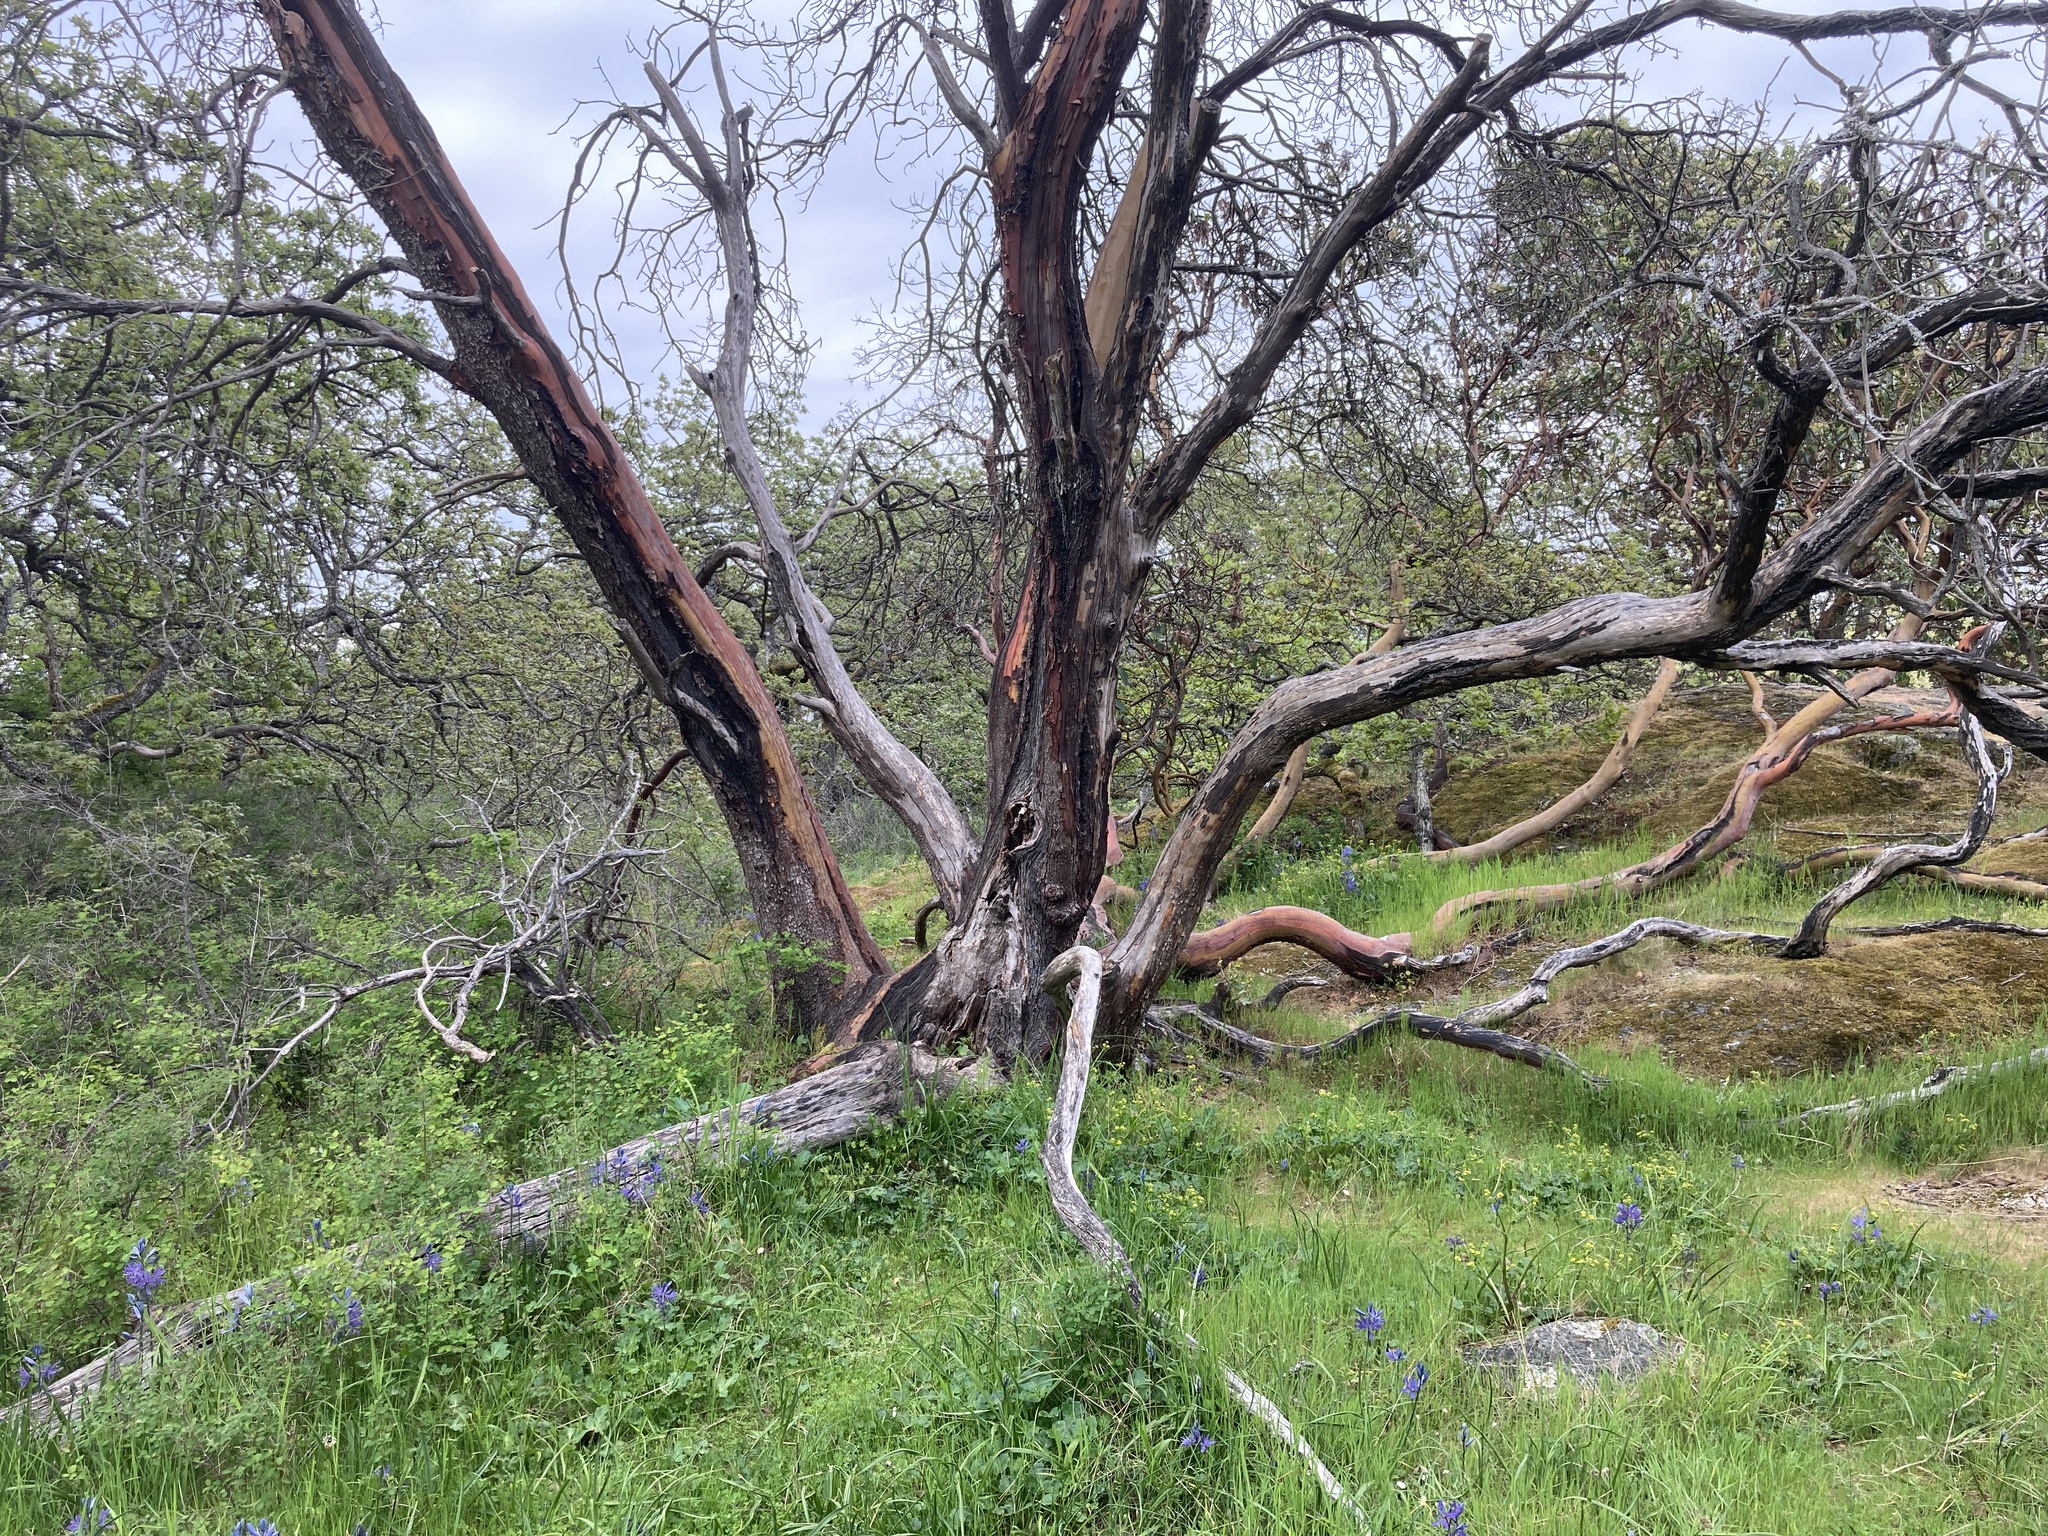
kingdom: Plantae
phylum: Tracheophyta
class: Magnoliopsida
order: Ericales
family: Ericaceae
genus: Arbutus
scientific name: Arbutus menziesii
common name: Pacific madrone
